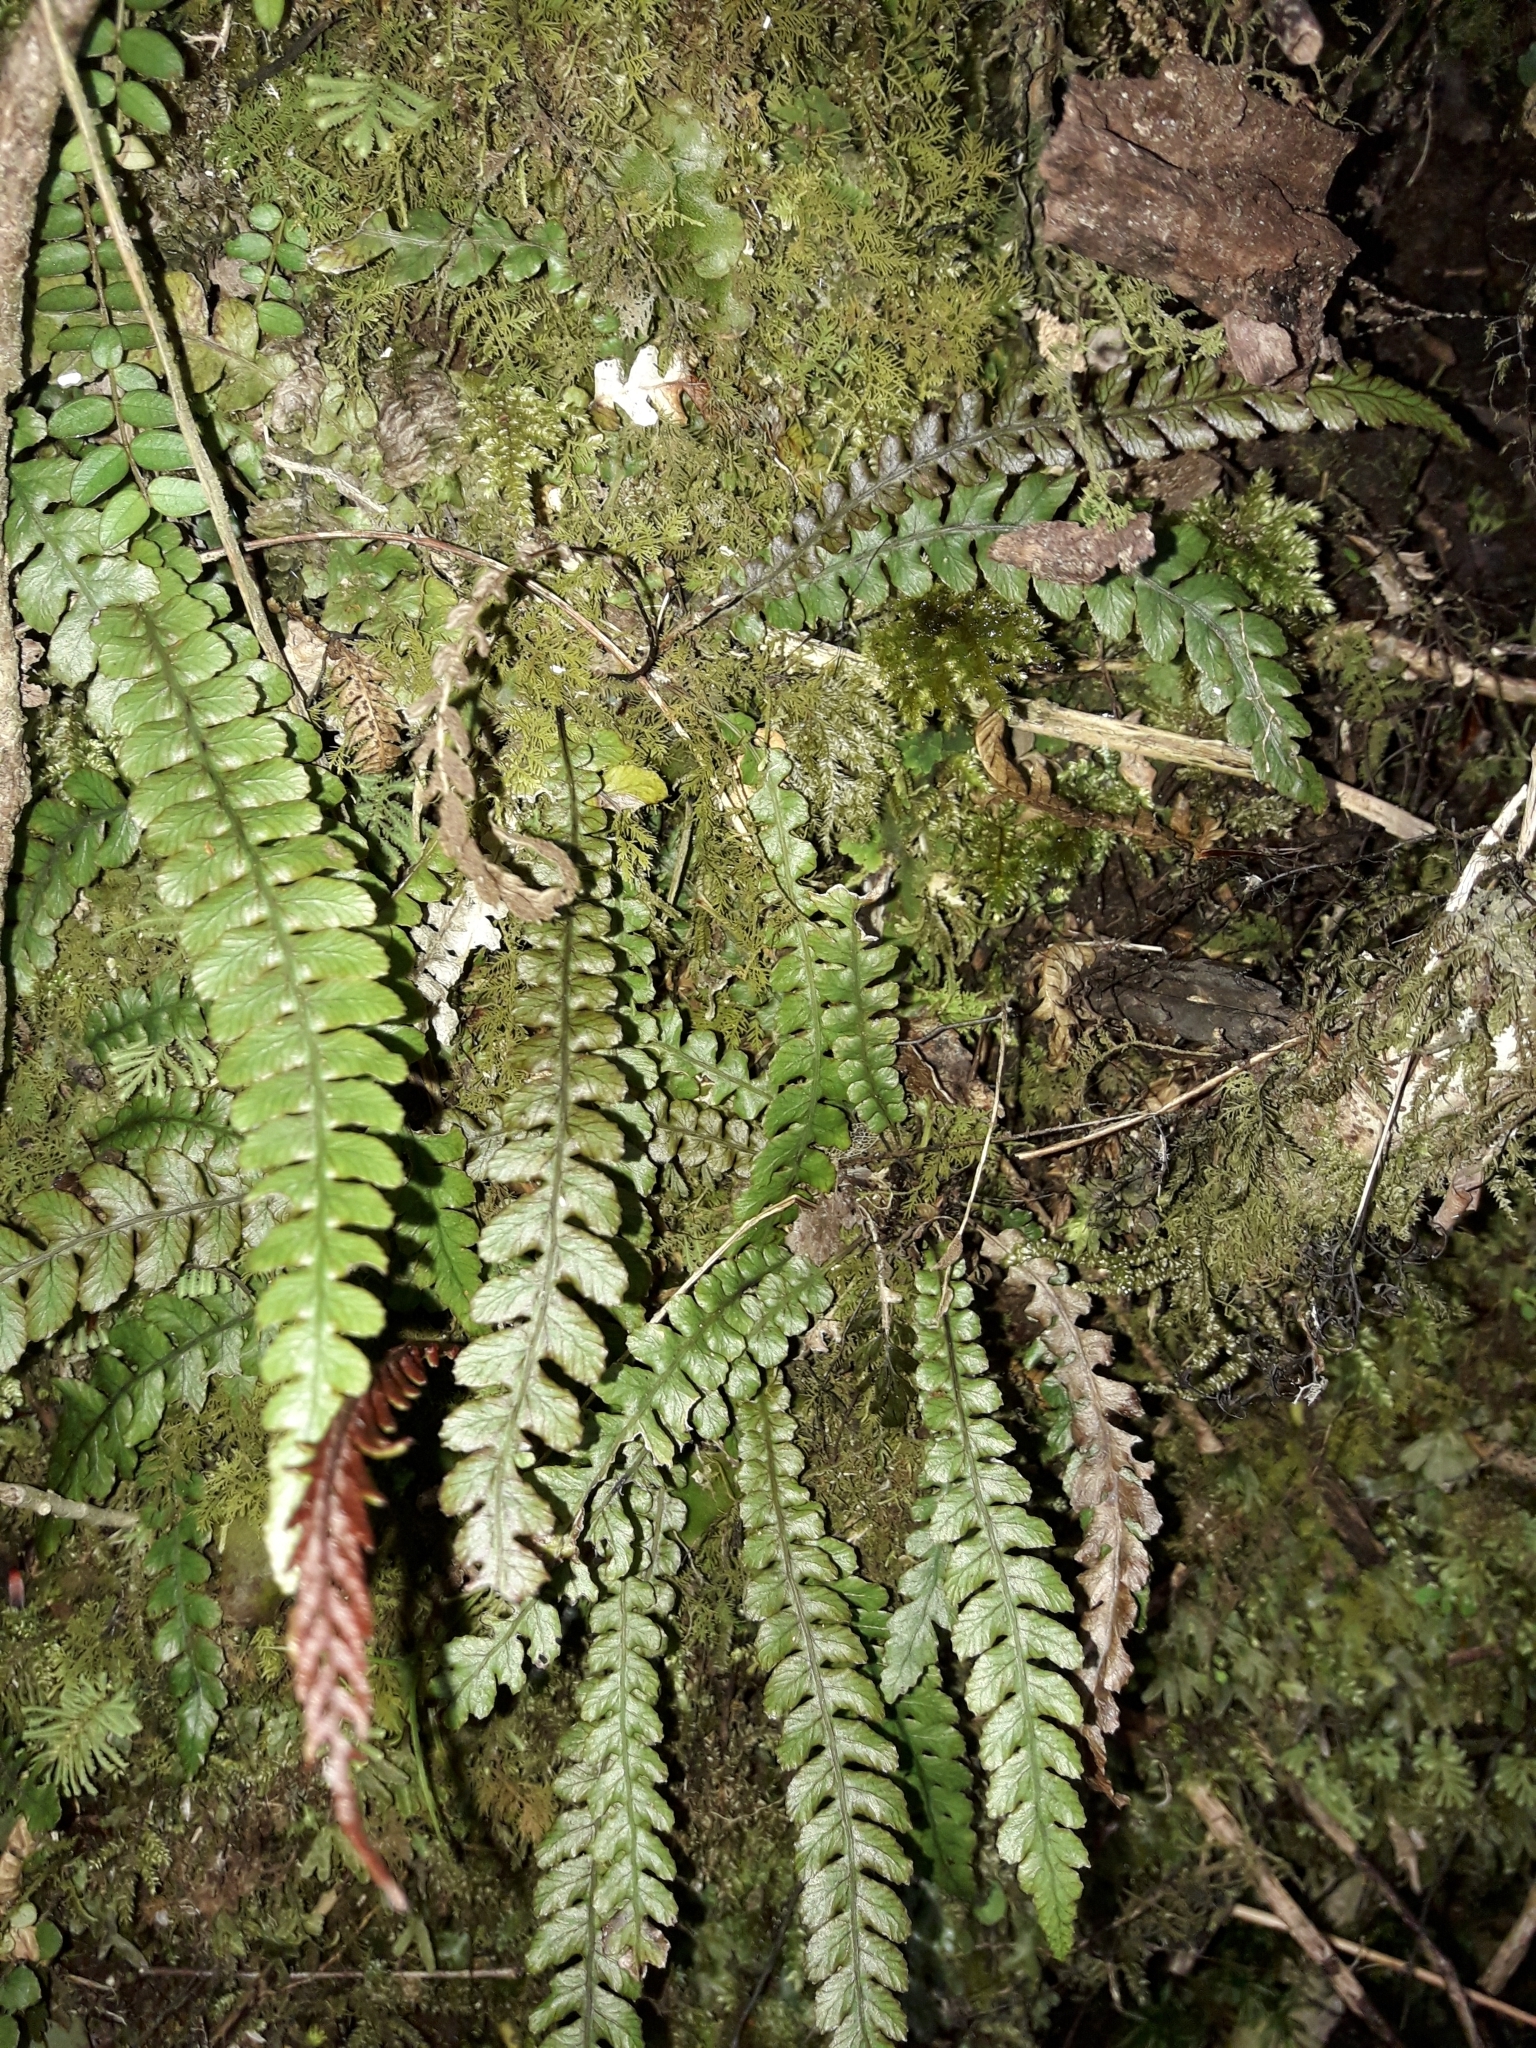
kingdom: Plantae
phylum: Tracheophyta
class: Polypodiopsida
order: Polypodiales
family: Blechnaceae
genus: Austroblechnum
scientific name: Austroblechnum membranaceum
